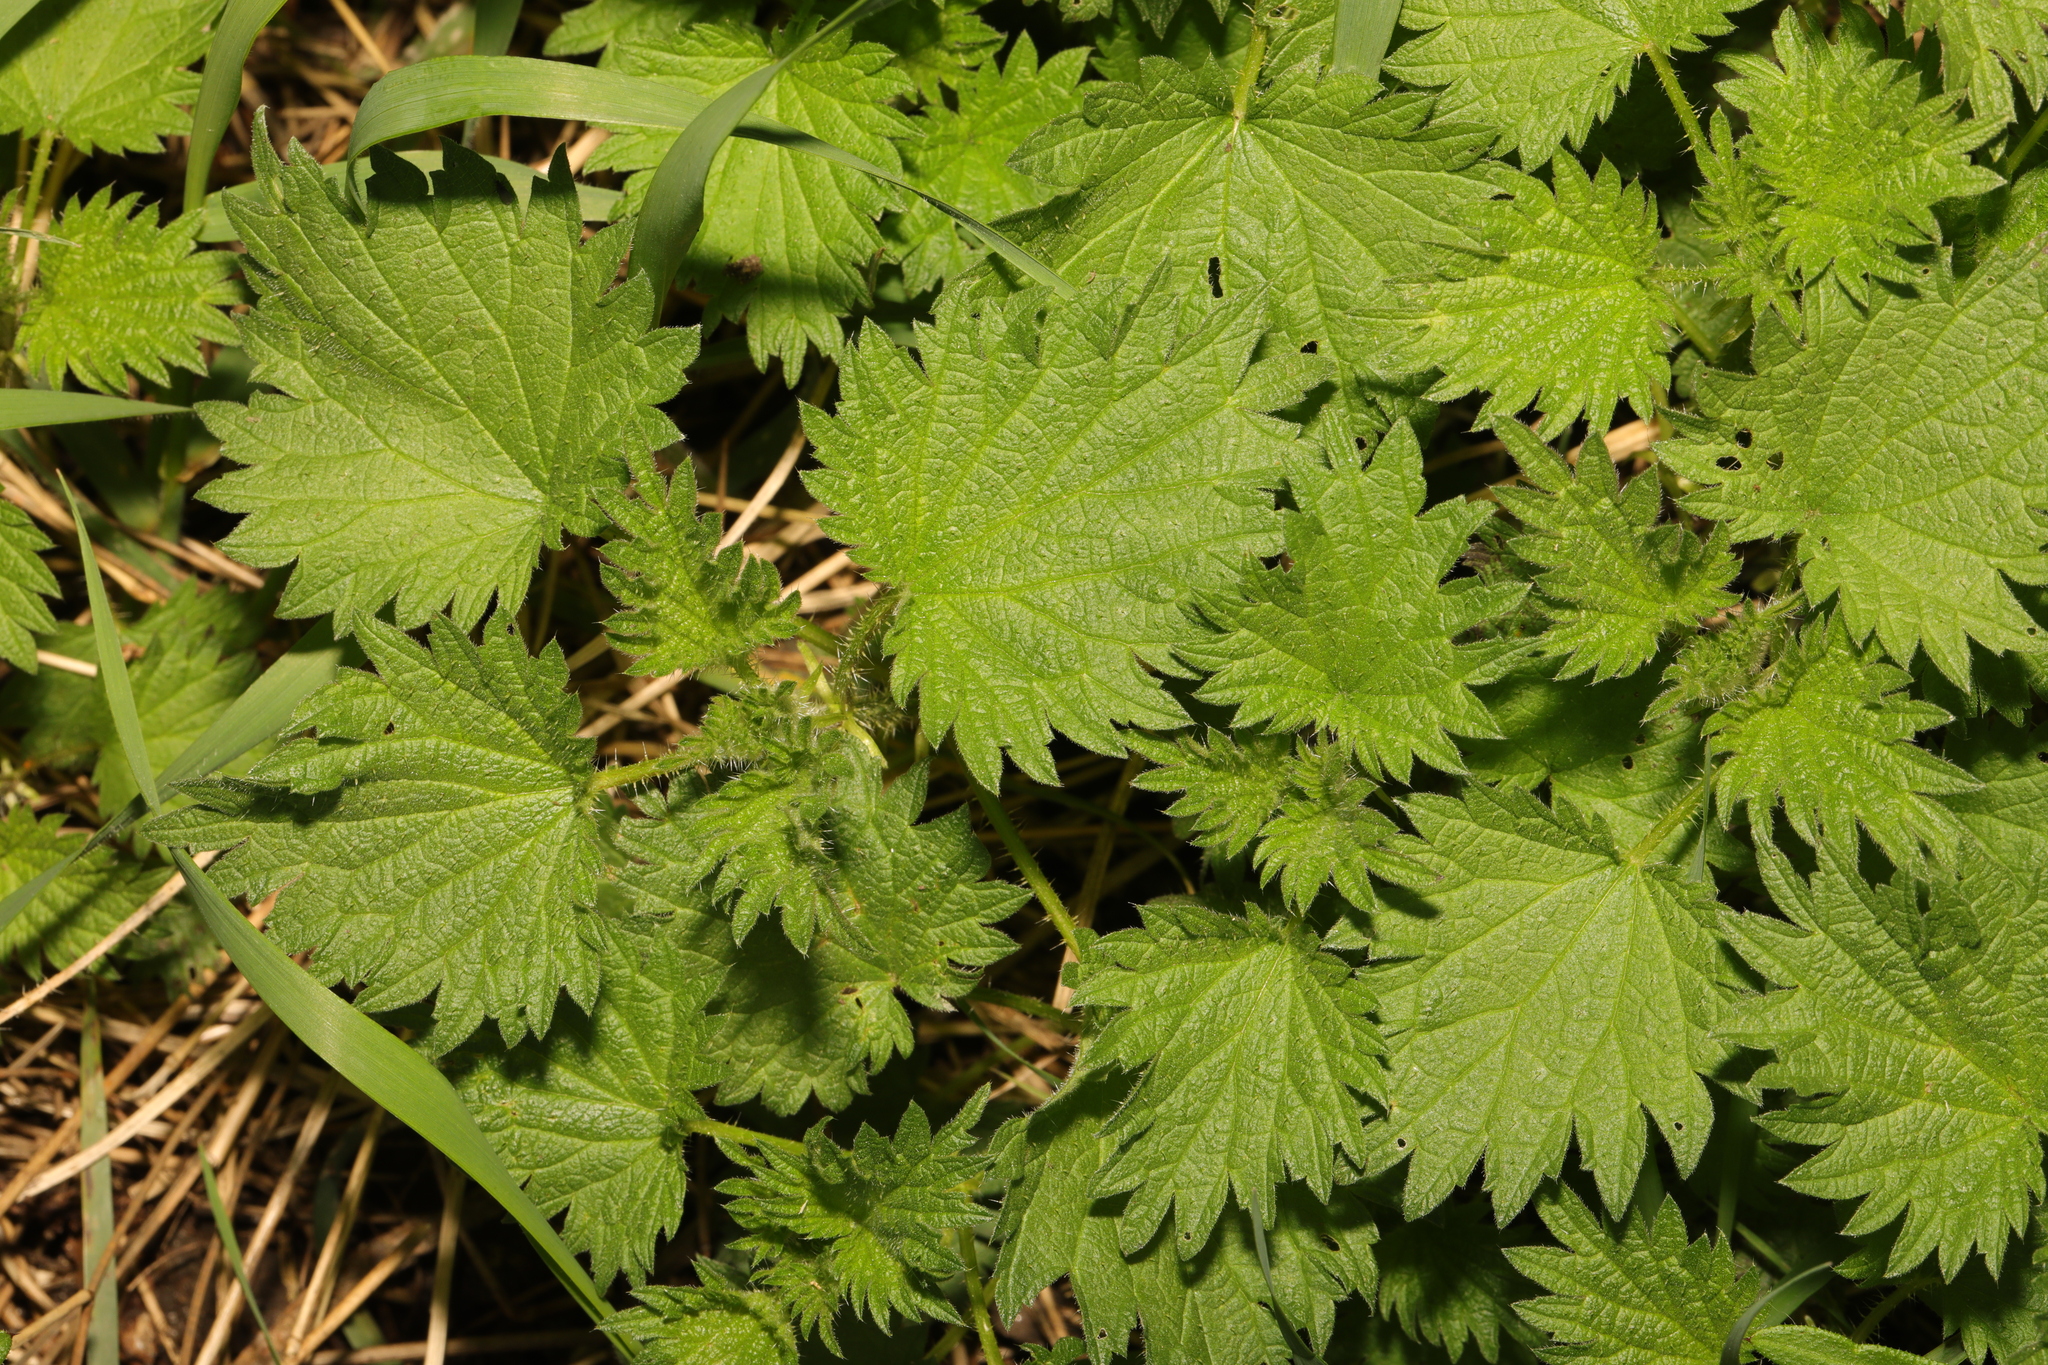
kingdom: Plantae
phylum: Tracheophyta
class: Magnoliopsida
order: Rosales
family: Urticaceae
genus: Urtica
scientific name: Urtica dioica
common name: Common nettle
